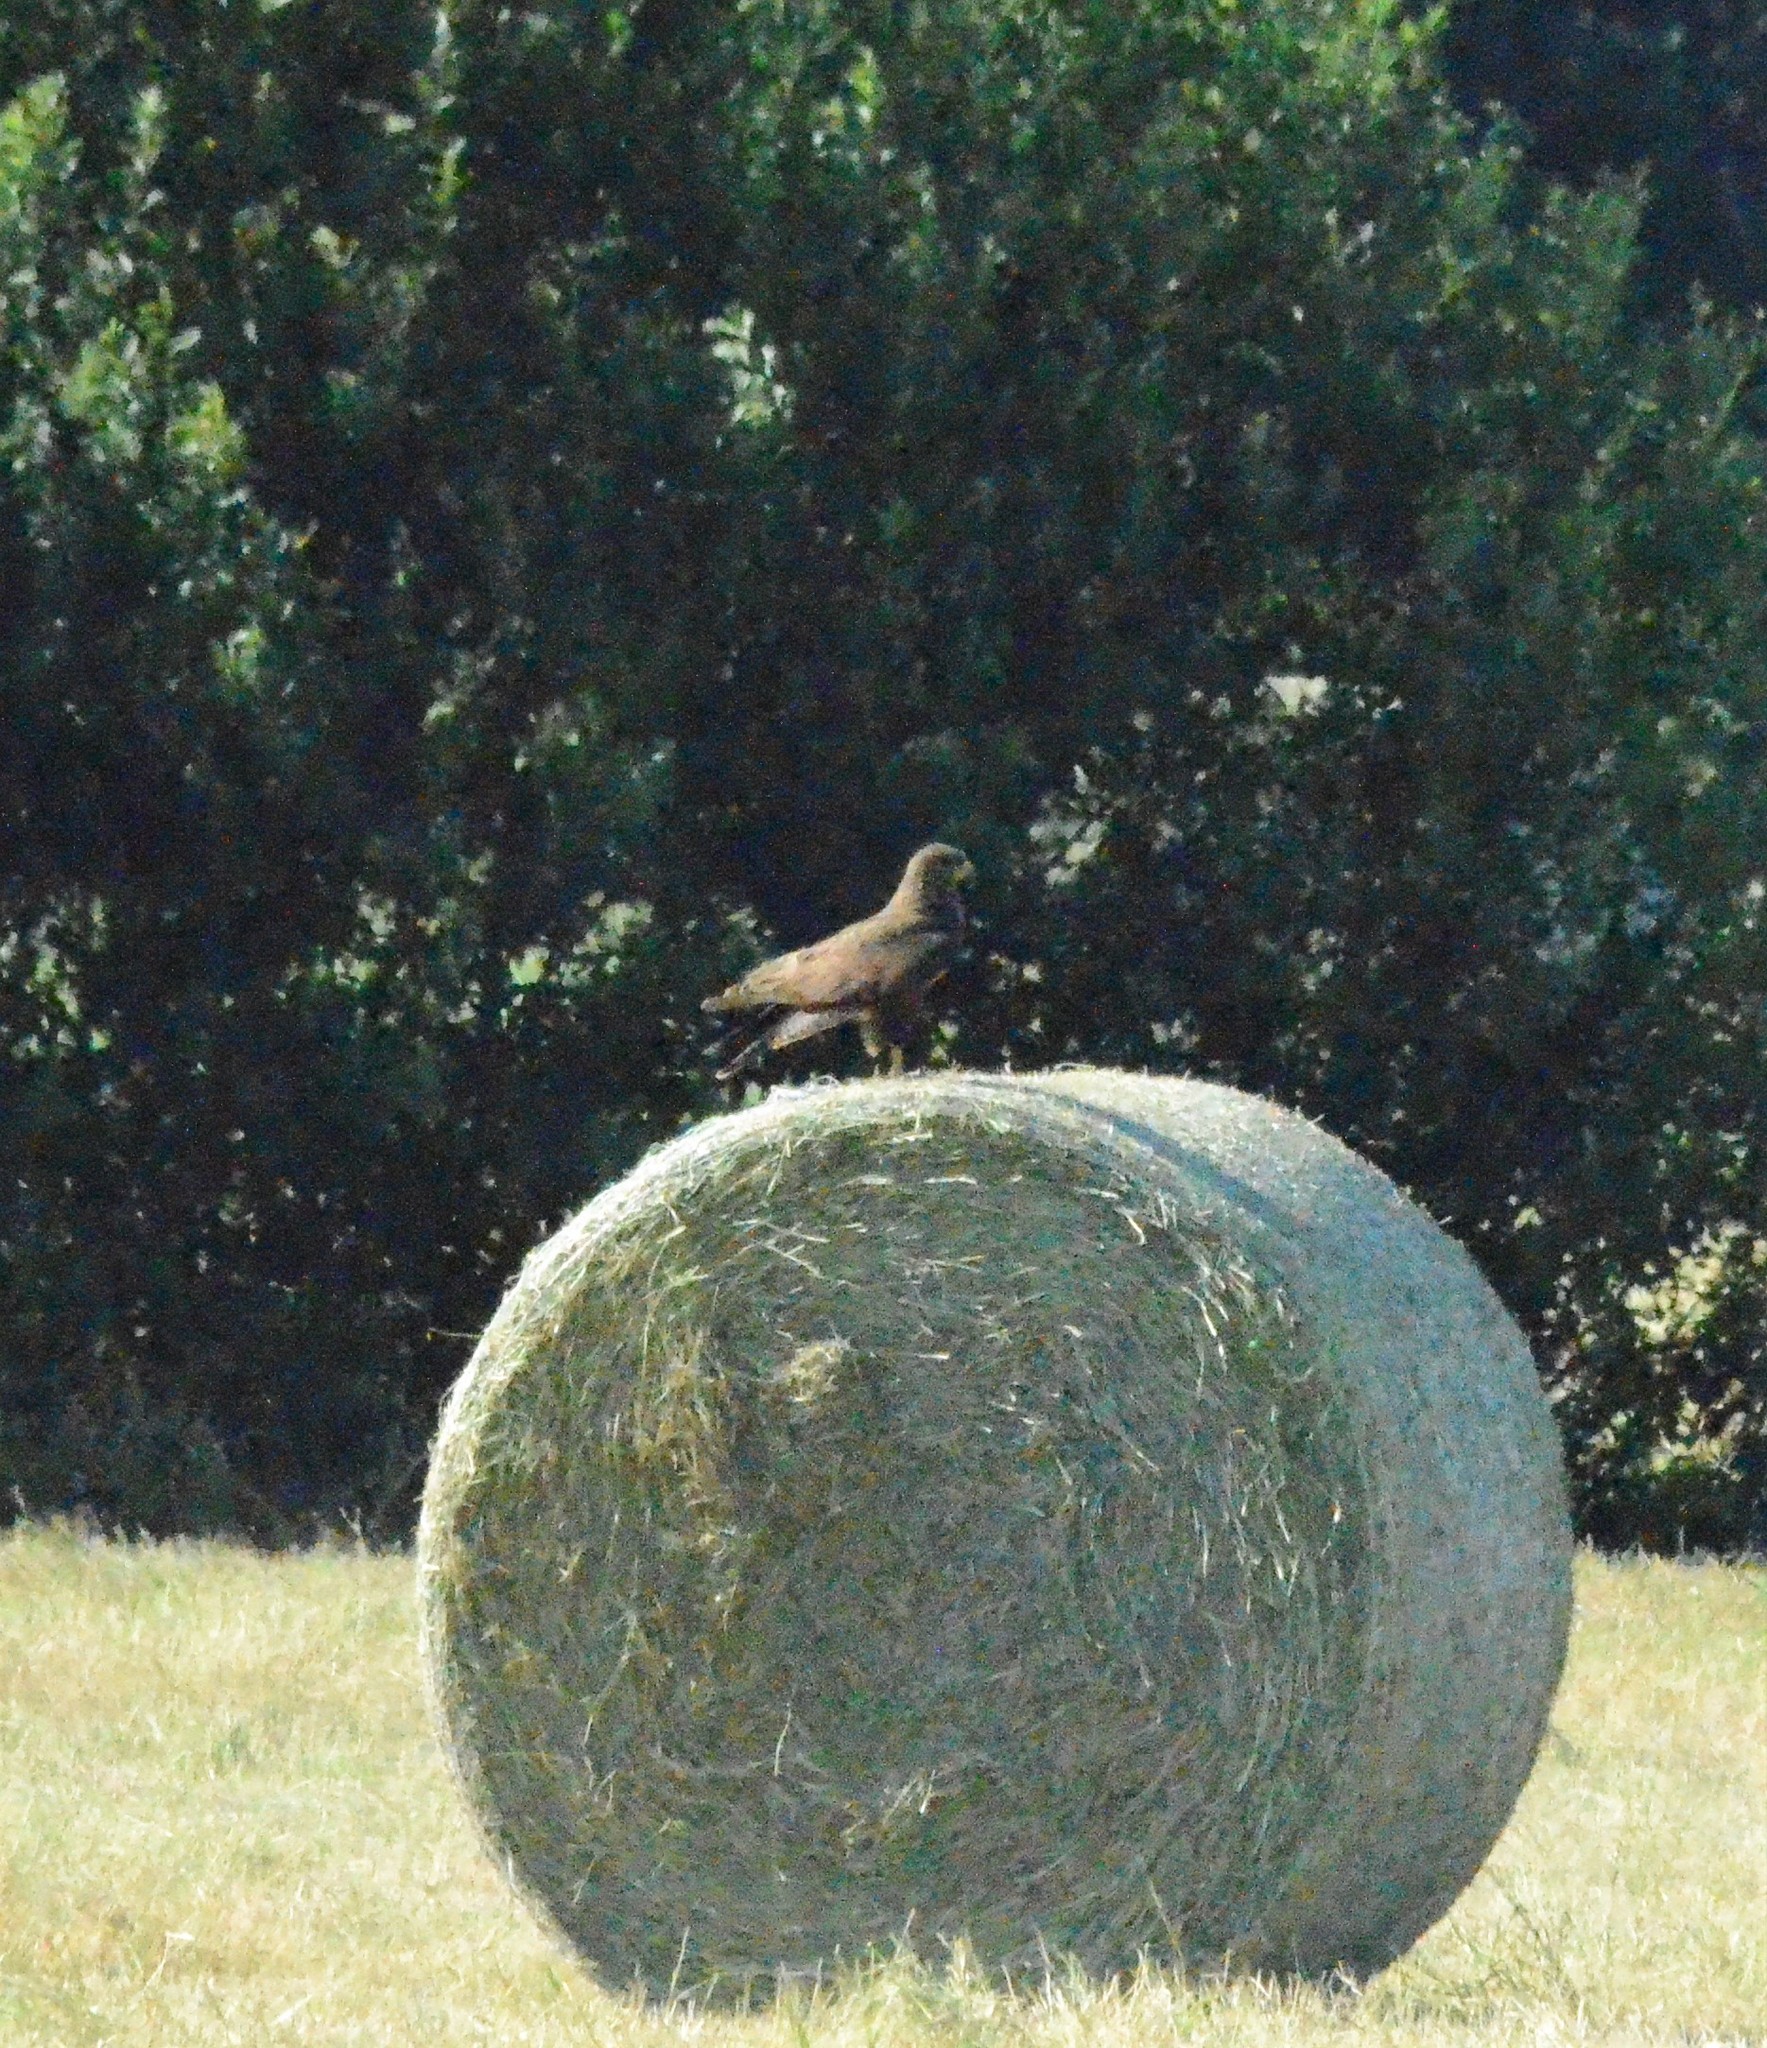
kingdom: Animalia
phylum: Chordata
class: Aves
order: Accipitriformes
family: Accipitridae
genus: Buteo
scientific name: Buteo buteo
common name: Common buzzard
